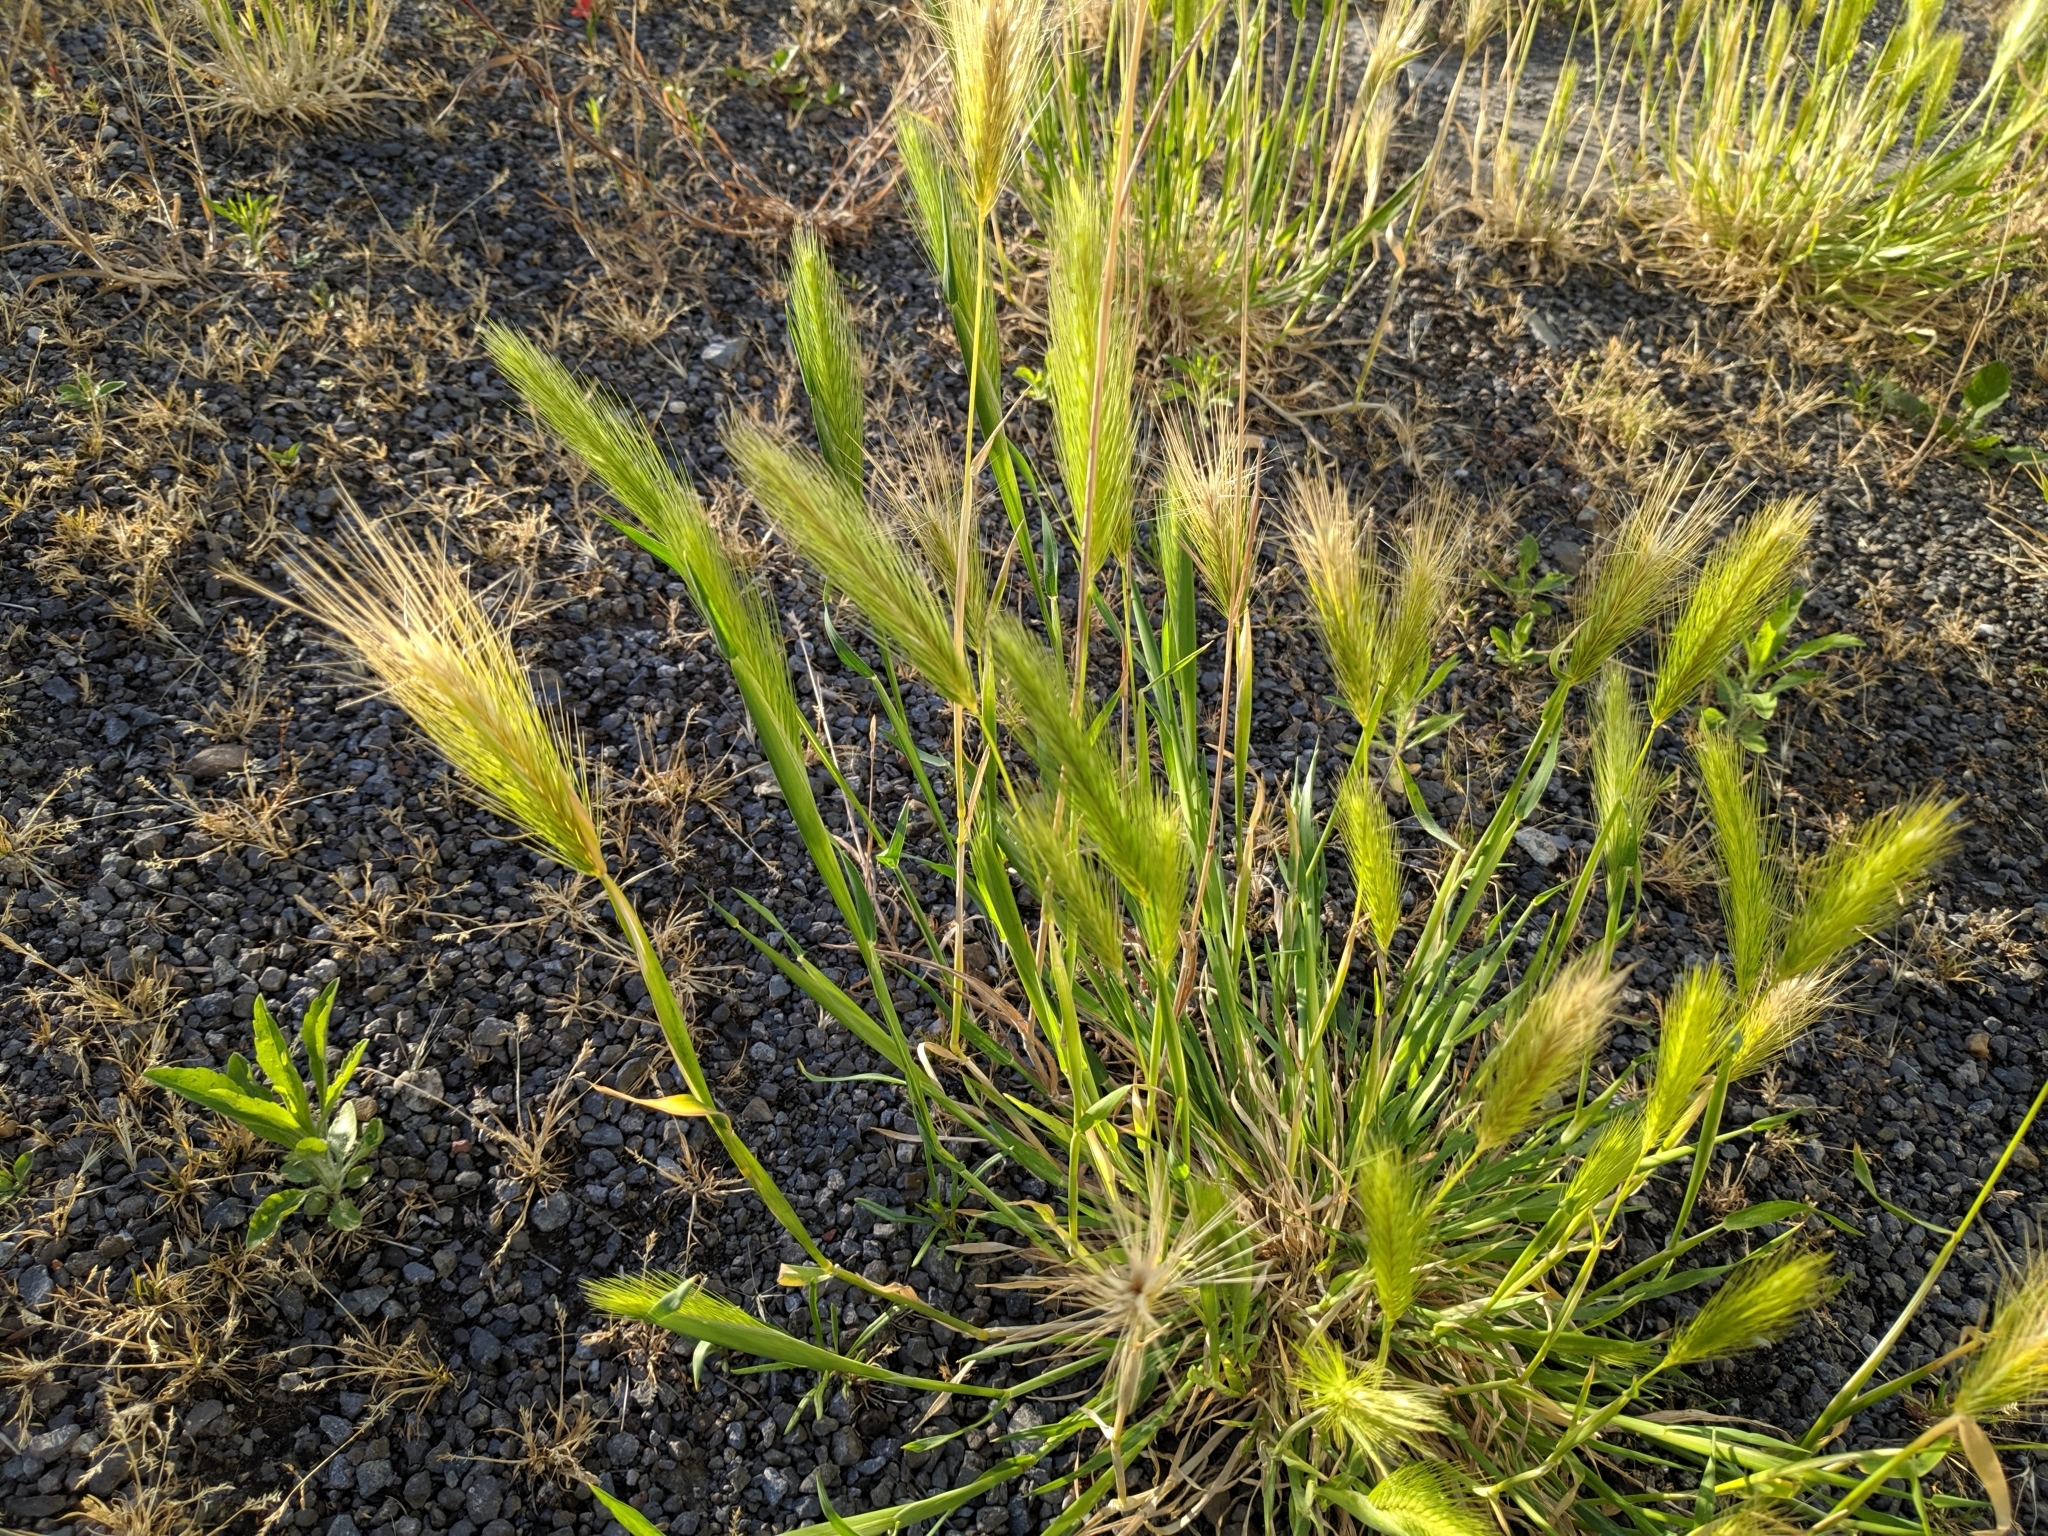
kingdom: Plantae
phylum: Tracheophyta
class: Liliopsida
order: Poales
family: Poaceae
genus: Hordeum
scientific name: Hordeum murinum
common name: Wall barley
